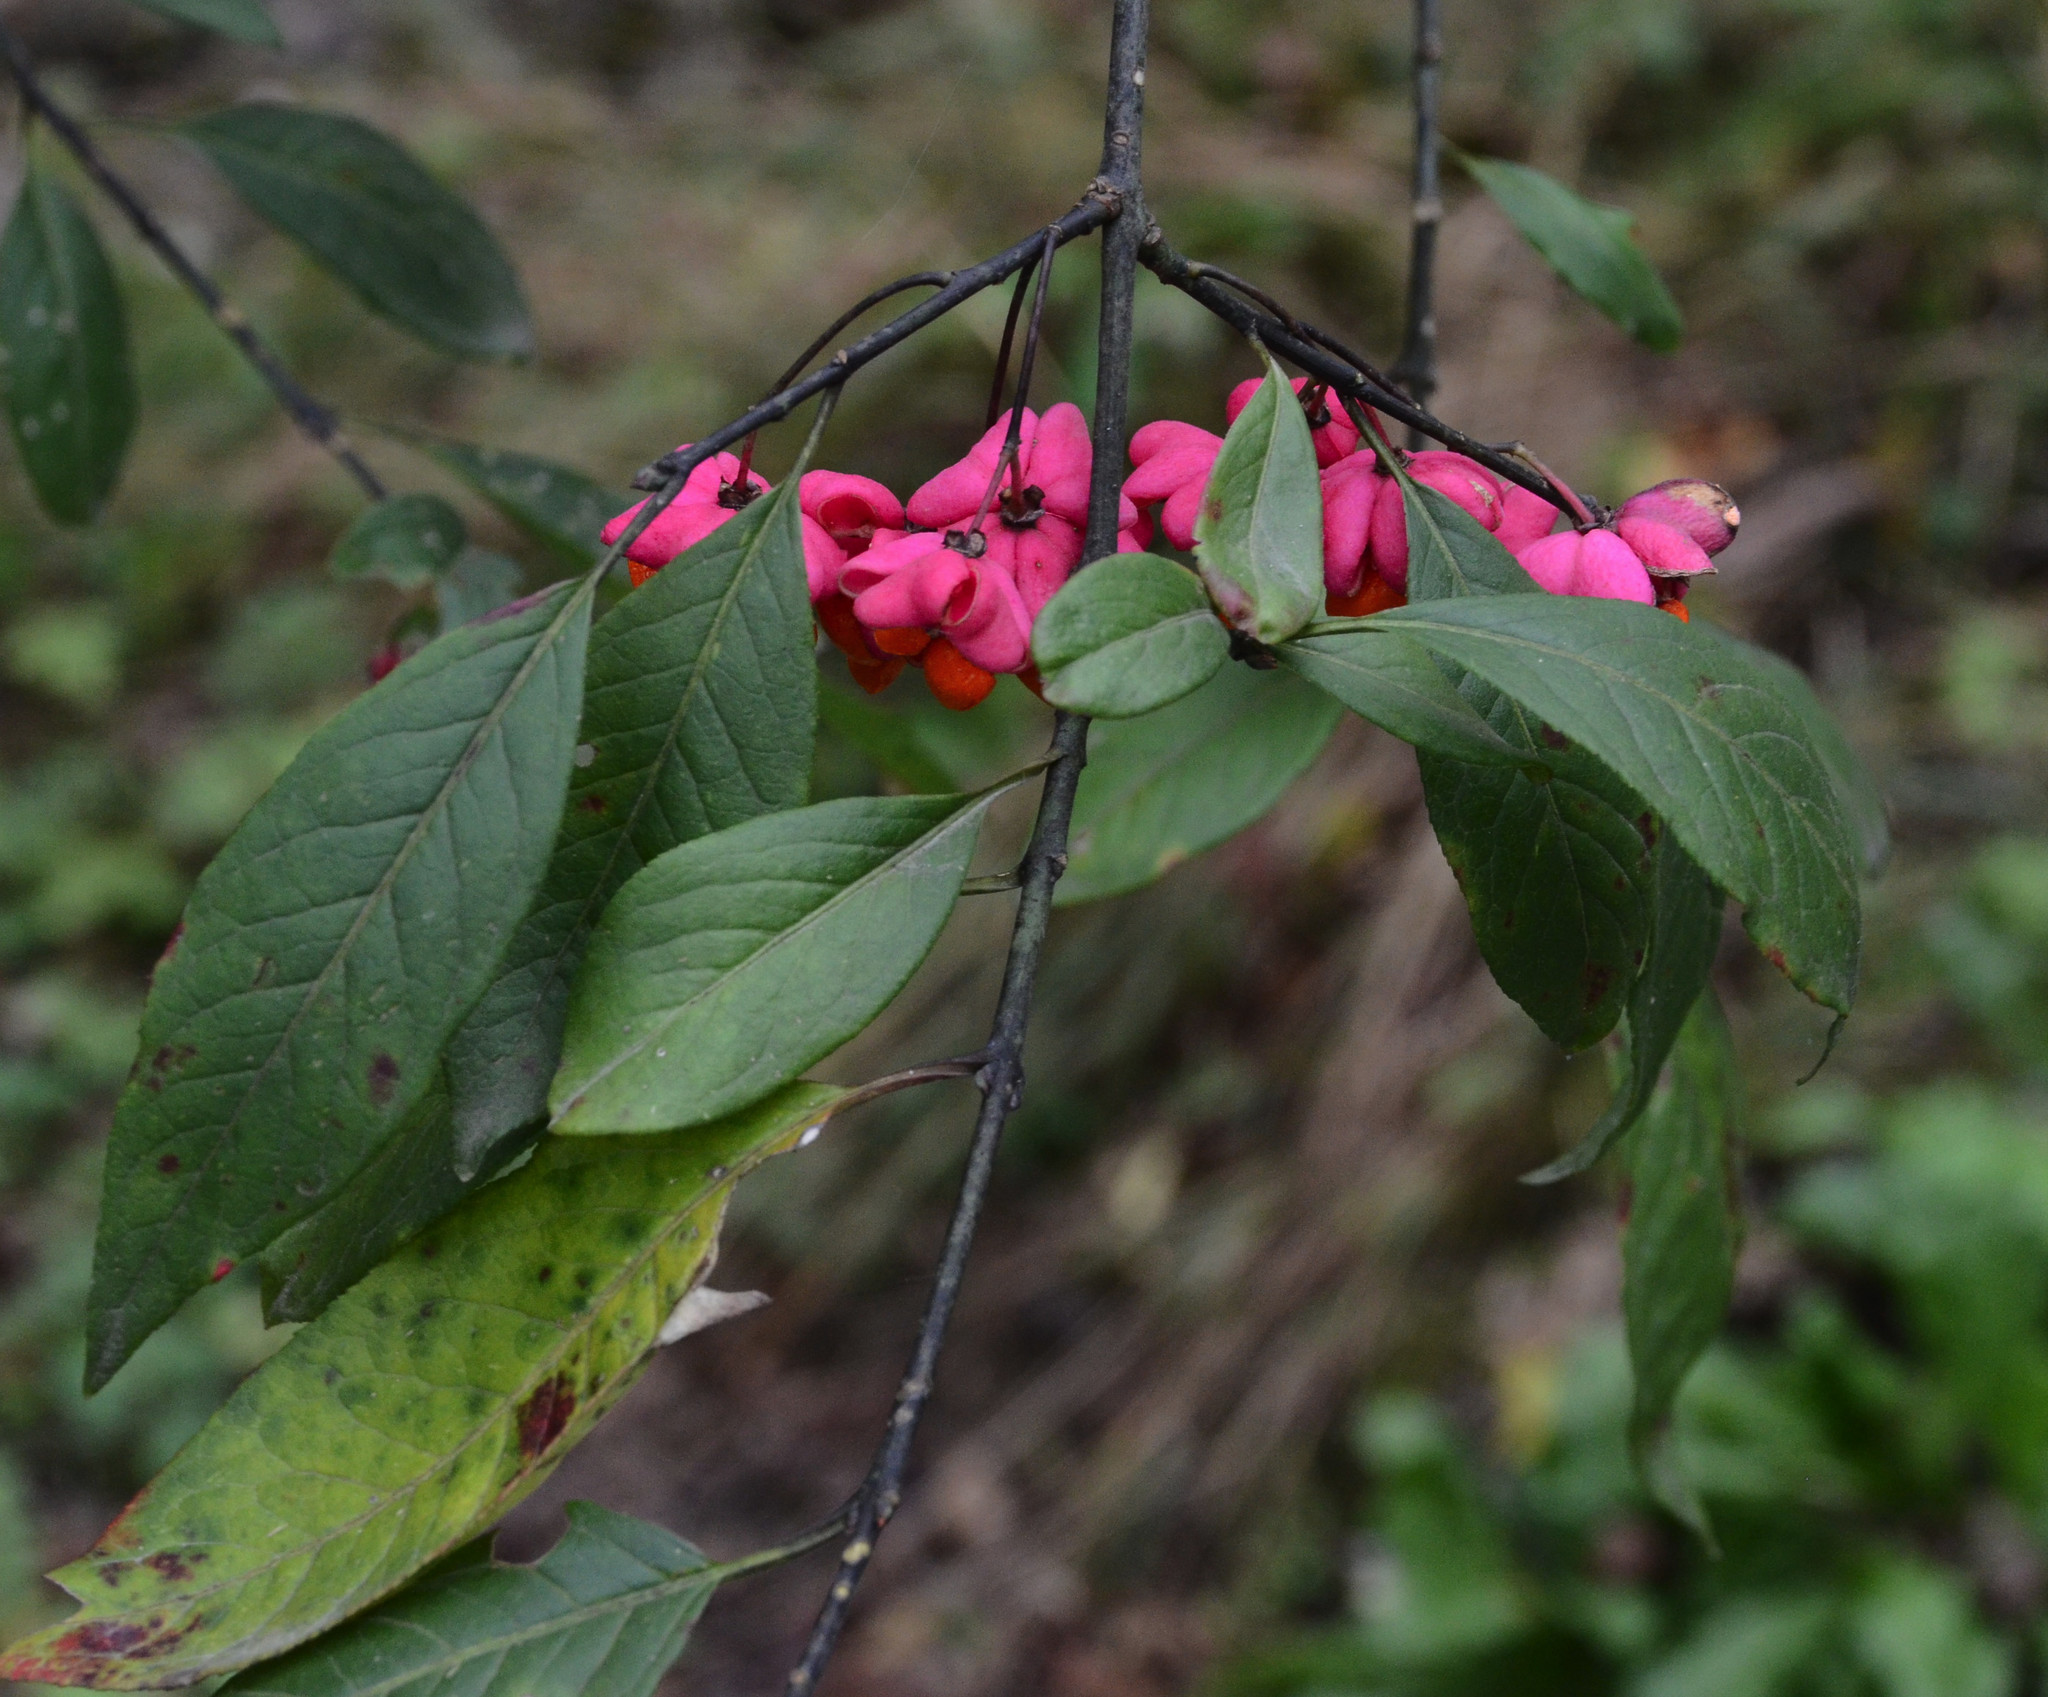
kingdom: Plantae
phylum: Tracheophyta
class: Magnoliopsida
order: Celastrales
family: Celastraceae
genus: Euonymus
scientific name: Euonymus europaeus
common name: Spindle
